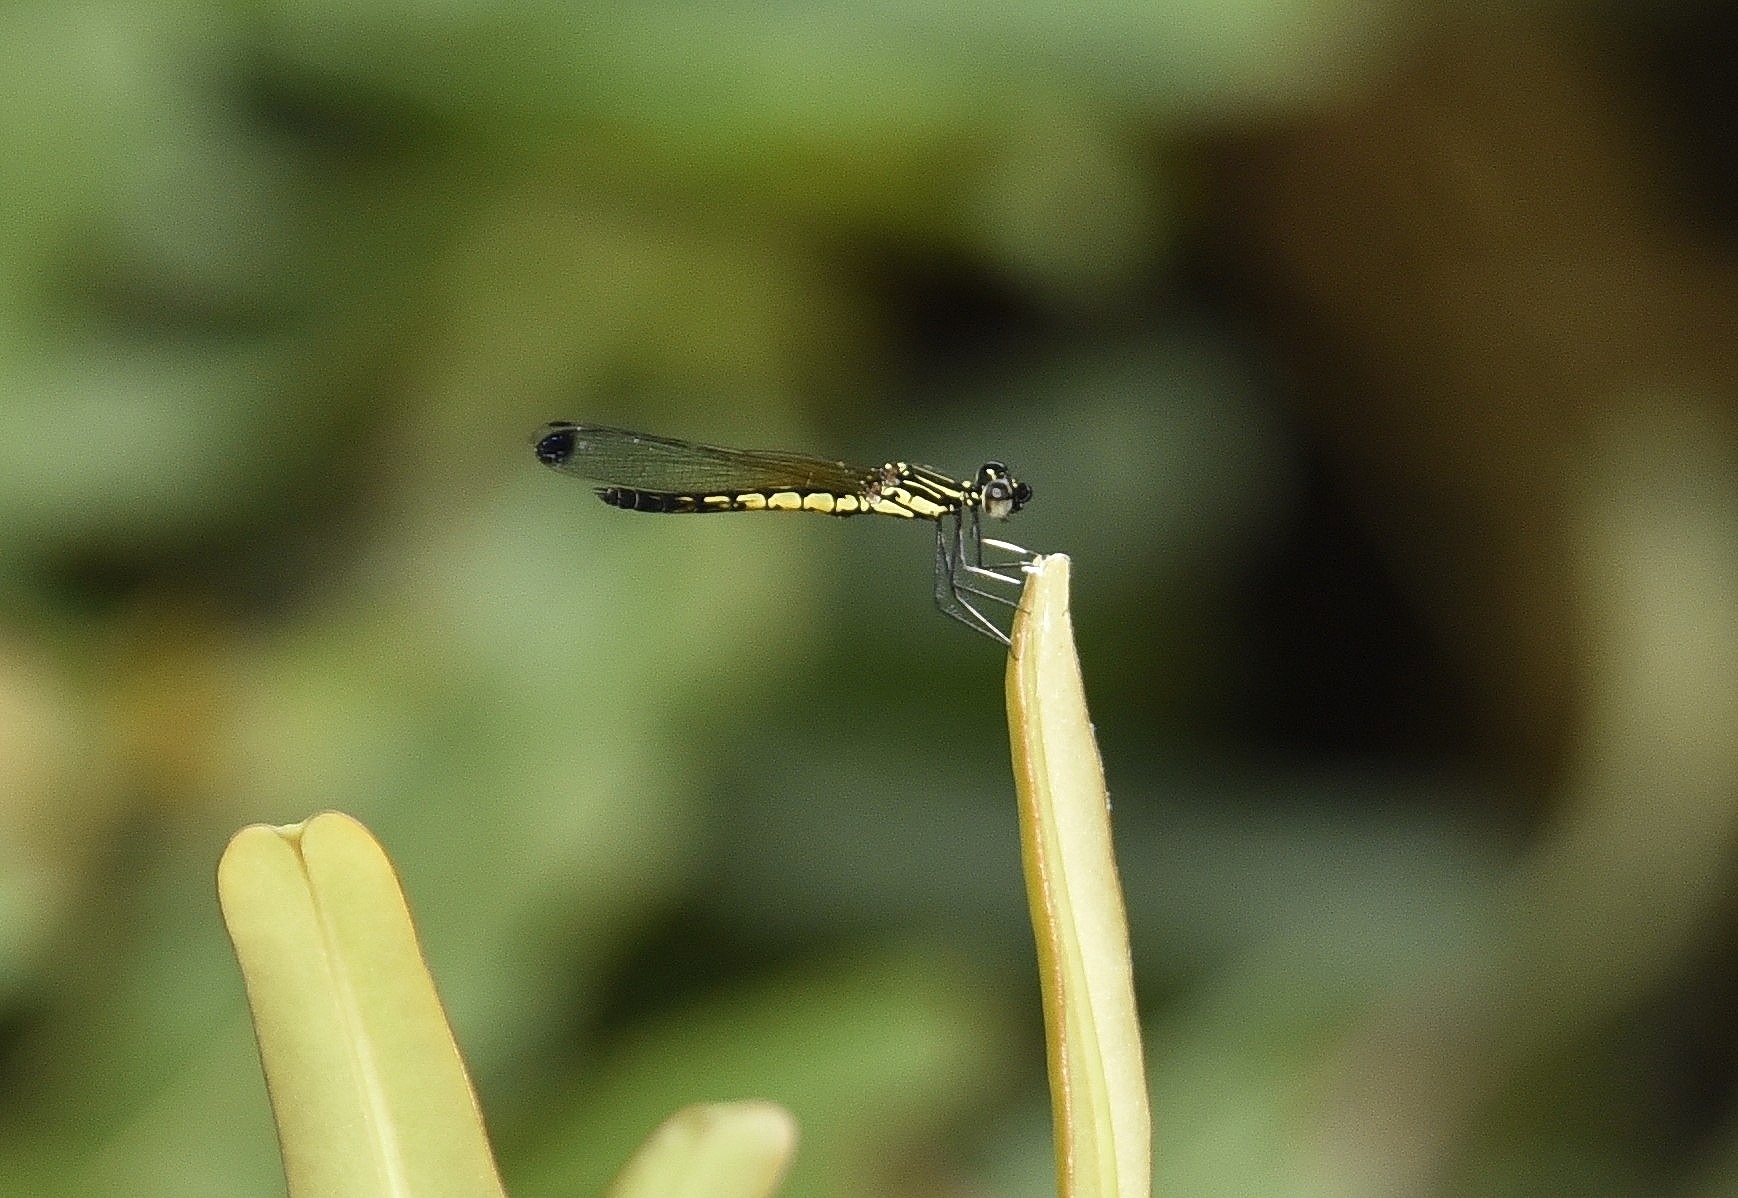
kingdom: Animalia
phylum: Arthropoda
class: Insecta
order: Odonata
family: Chlorocyphidae
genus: Libellago
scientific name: Libellago indica
